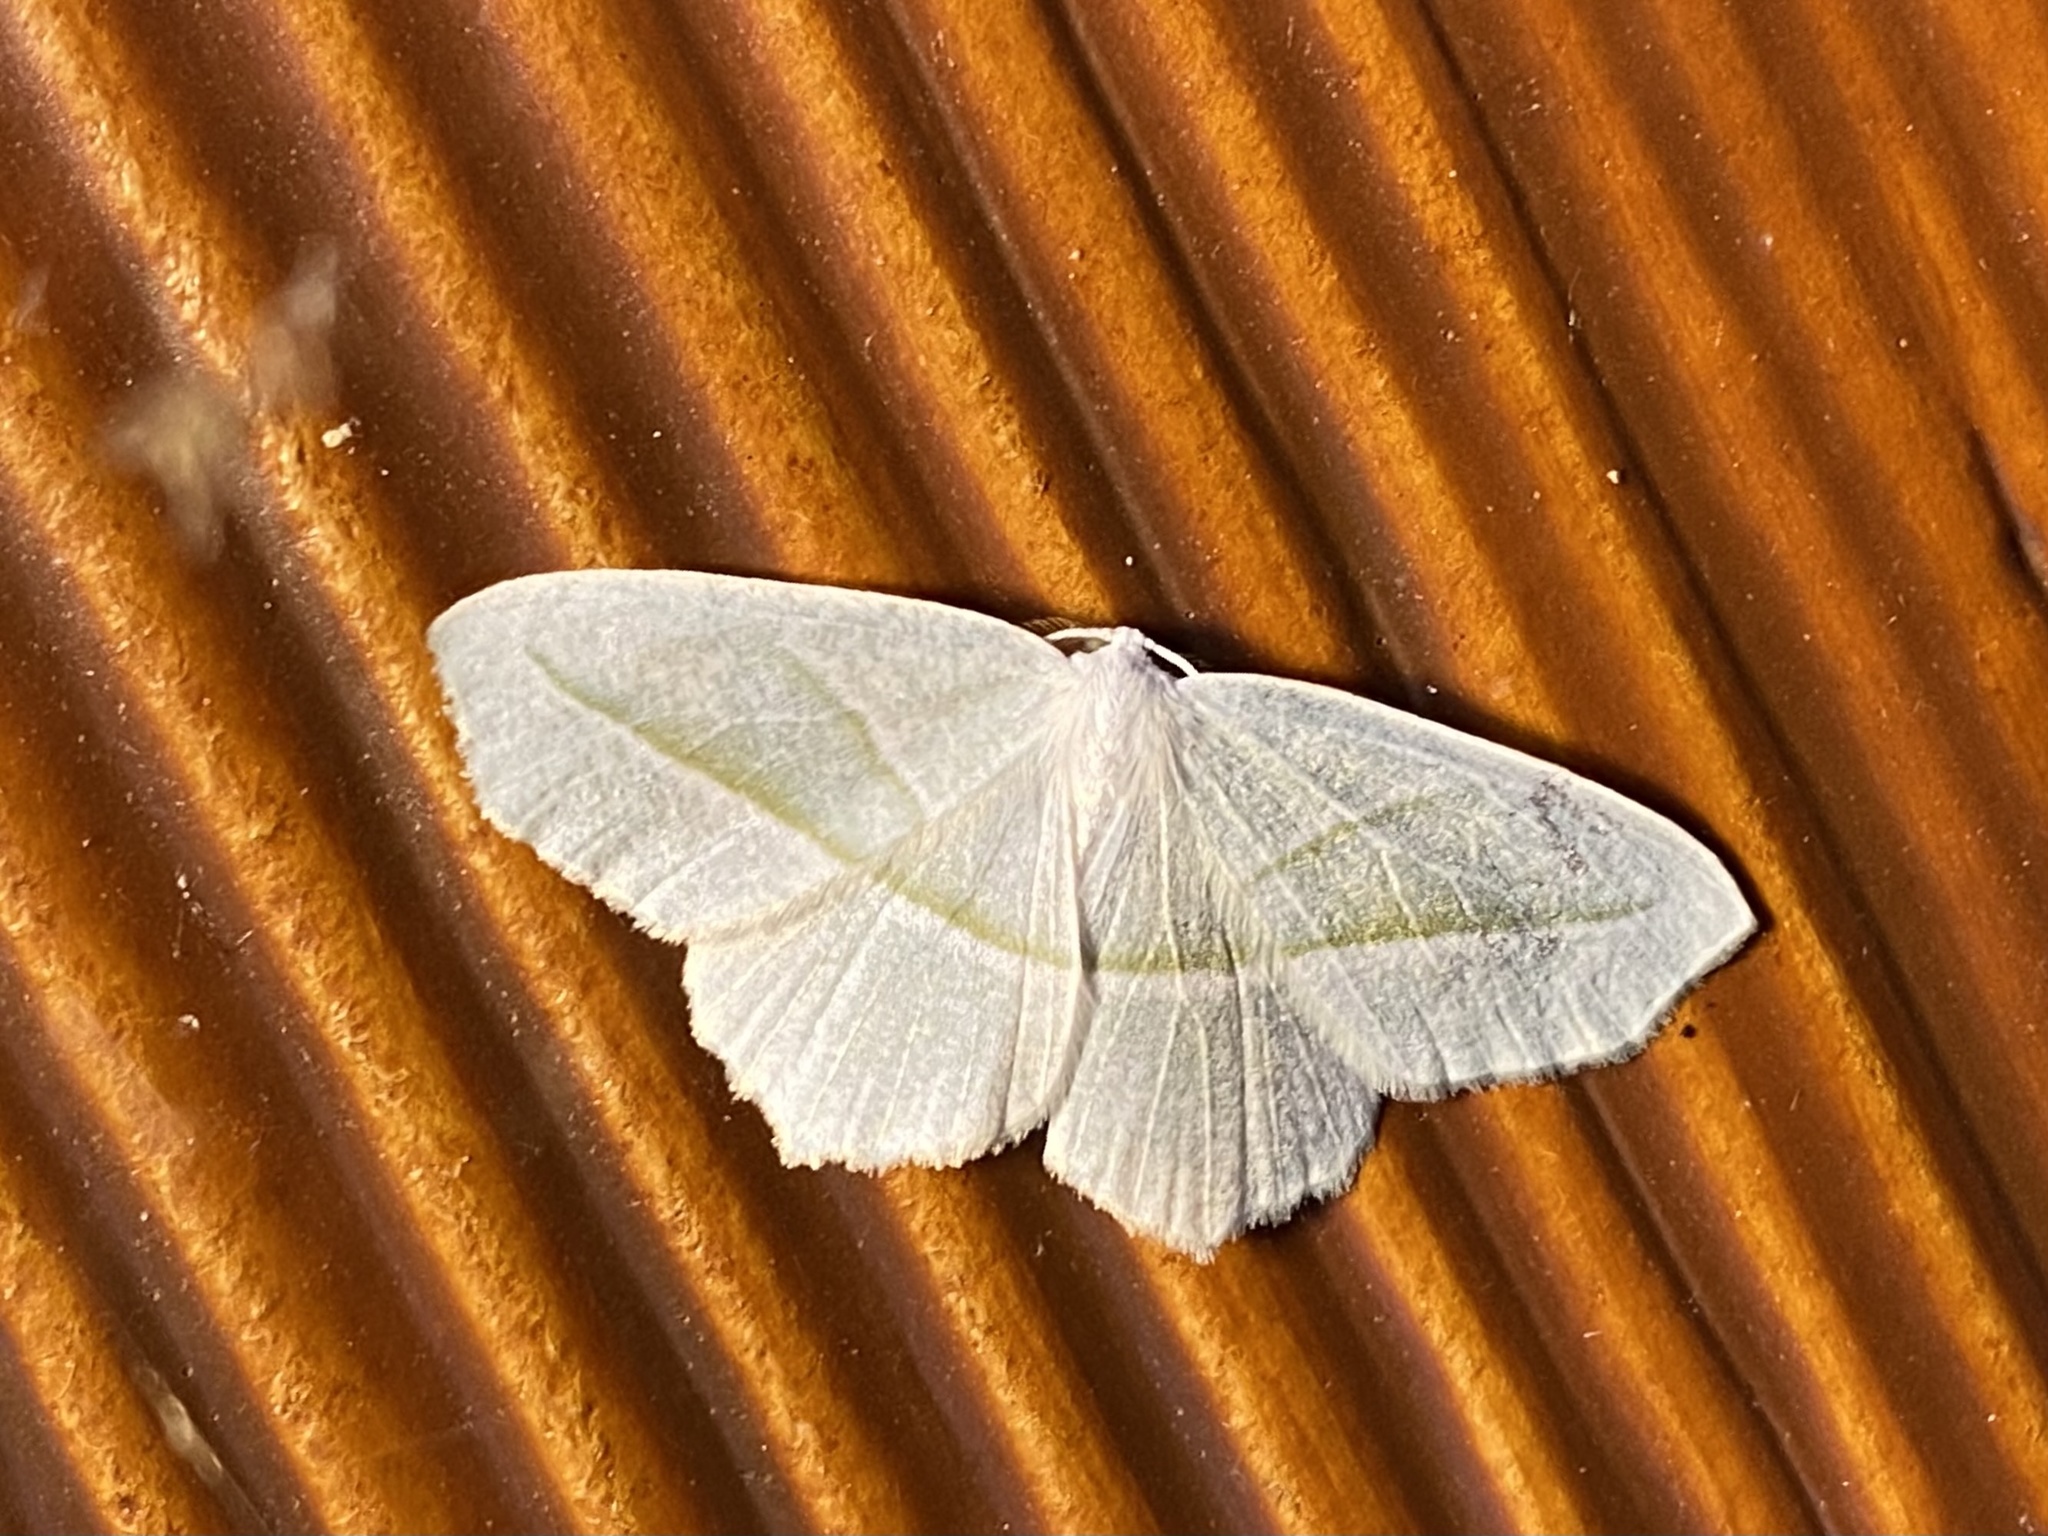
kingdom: Animalia
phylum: Arthropoda
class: Insecta
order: Lepidoptera
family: Geometridae
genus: Campaea
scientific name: Campaea perlata
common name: Fringed looper
